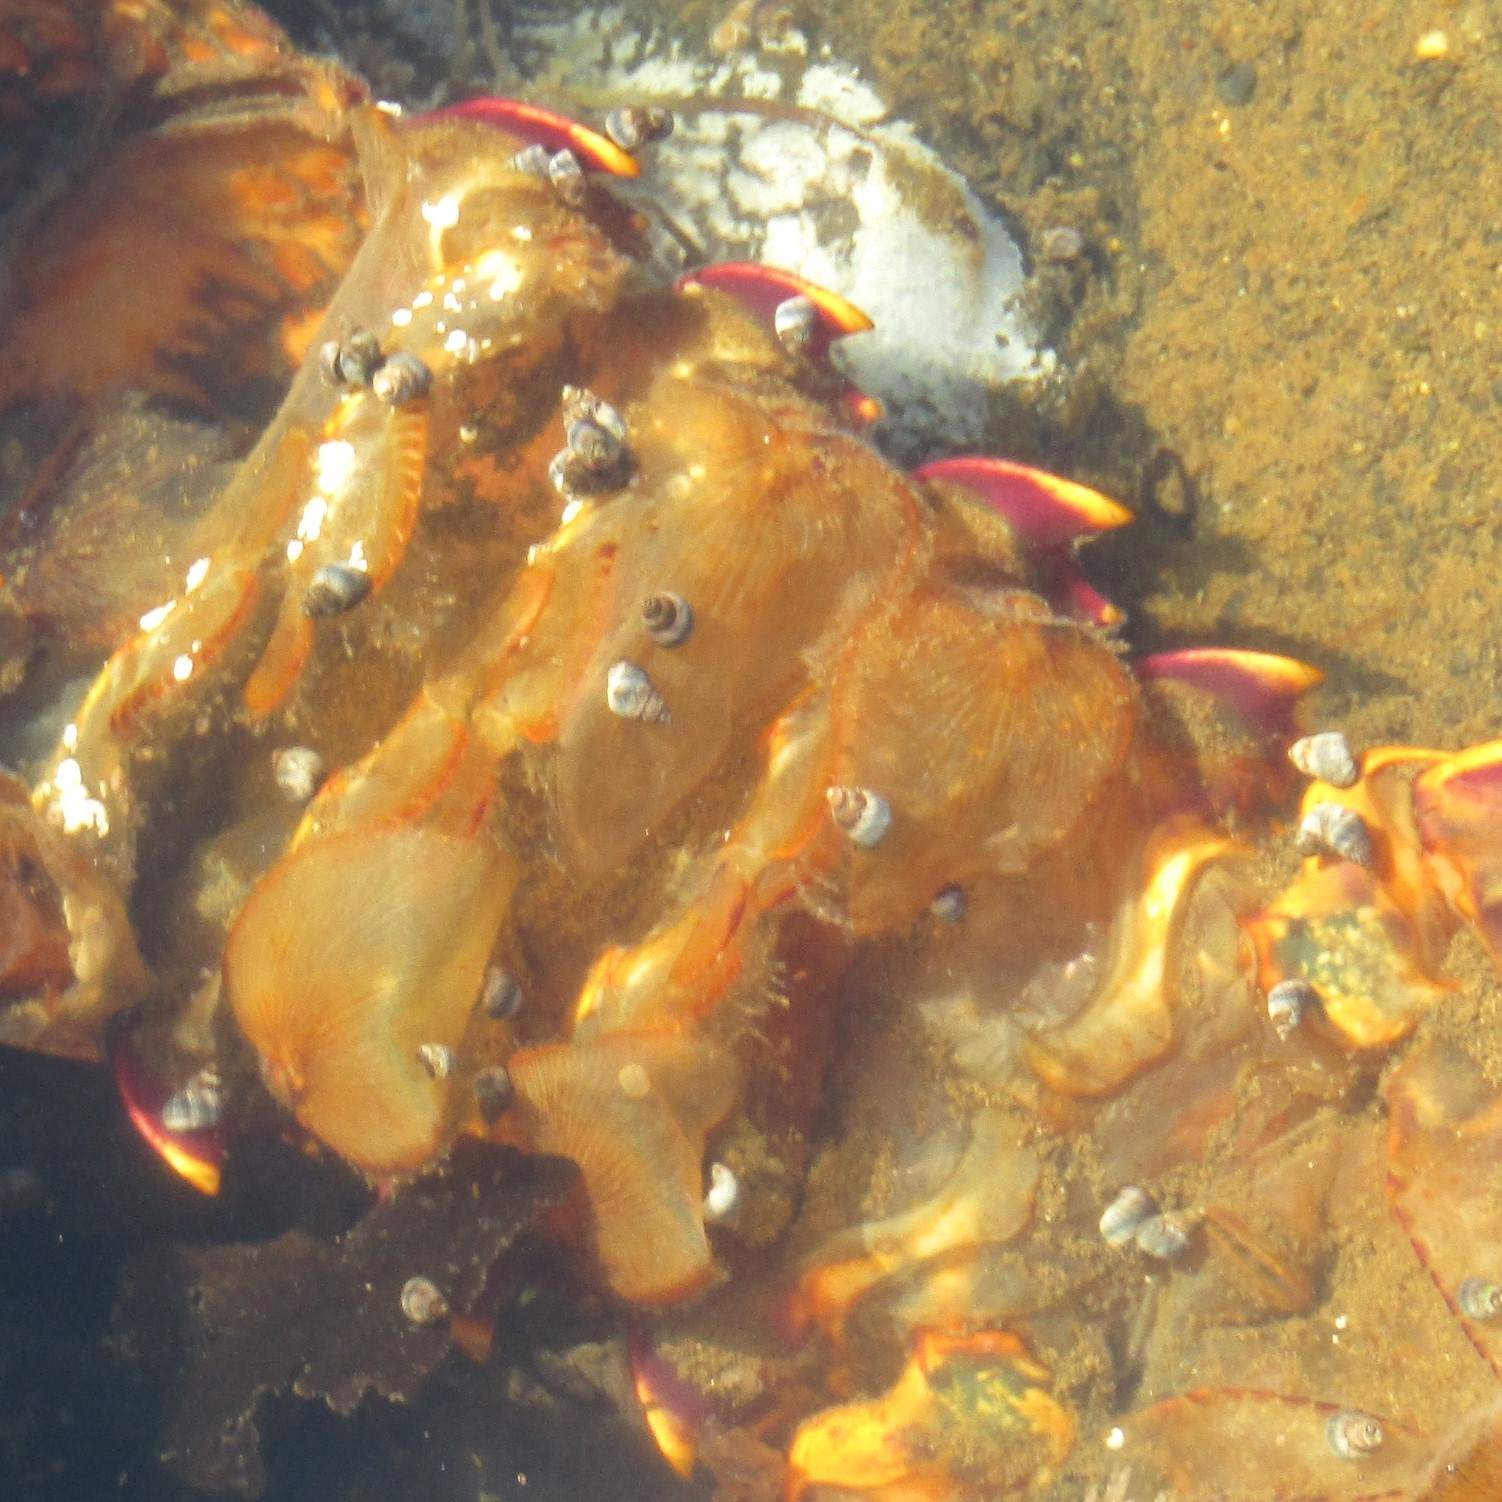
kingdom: Animalia
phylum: Mollusca
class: Gastropoda
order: Littorinimorpha
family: Littorinidae
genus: Austrolittorina
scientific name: Austrolittorina antipodum
